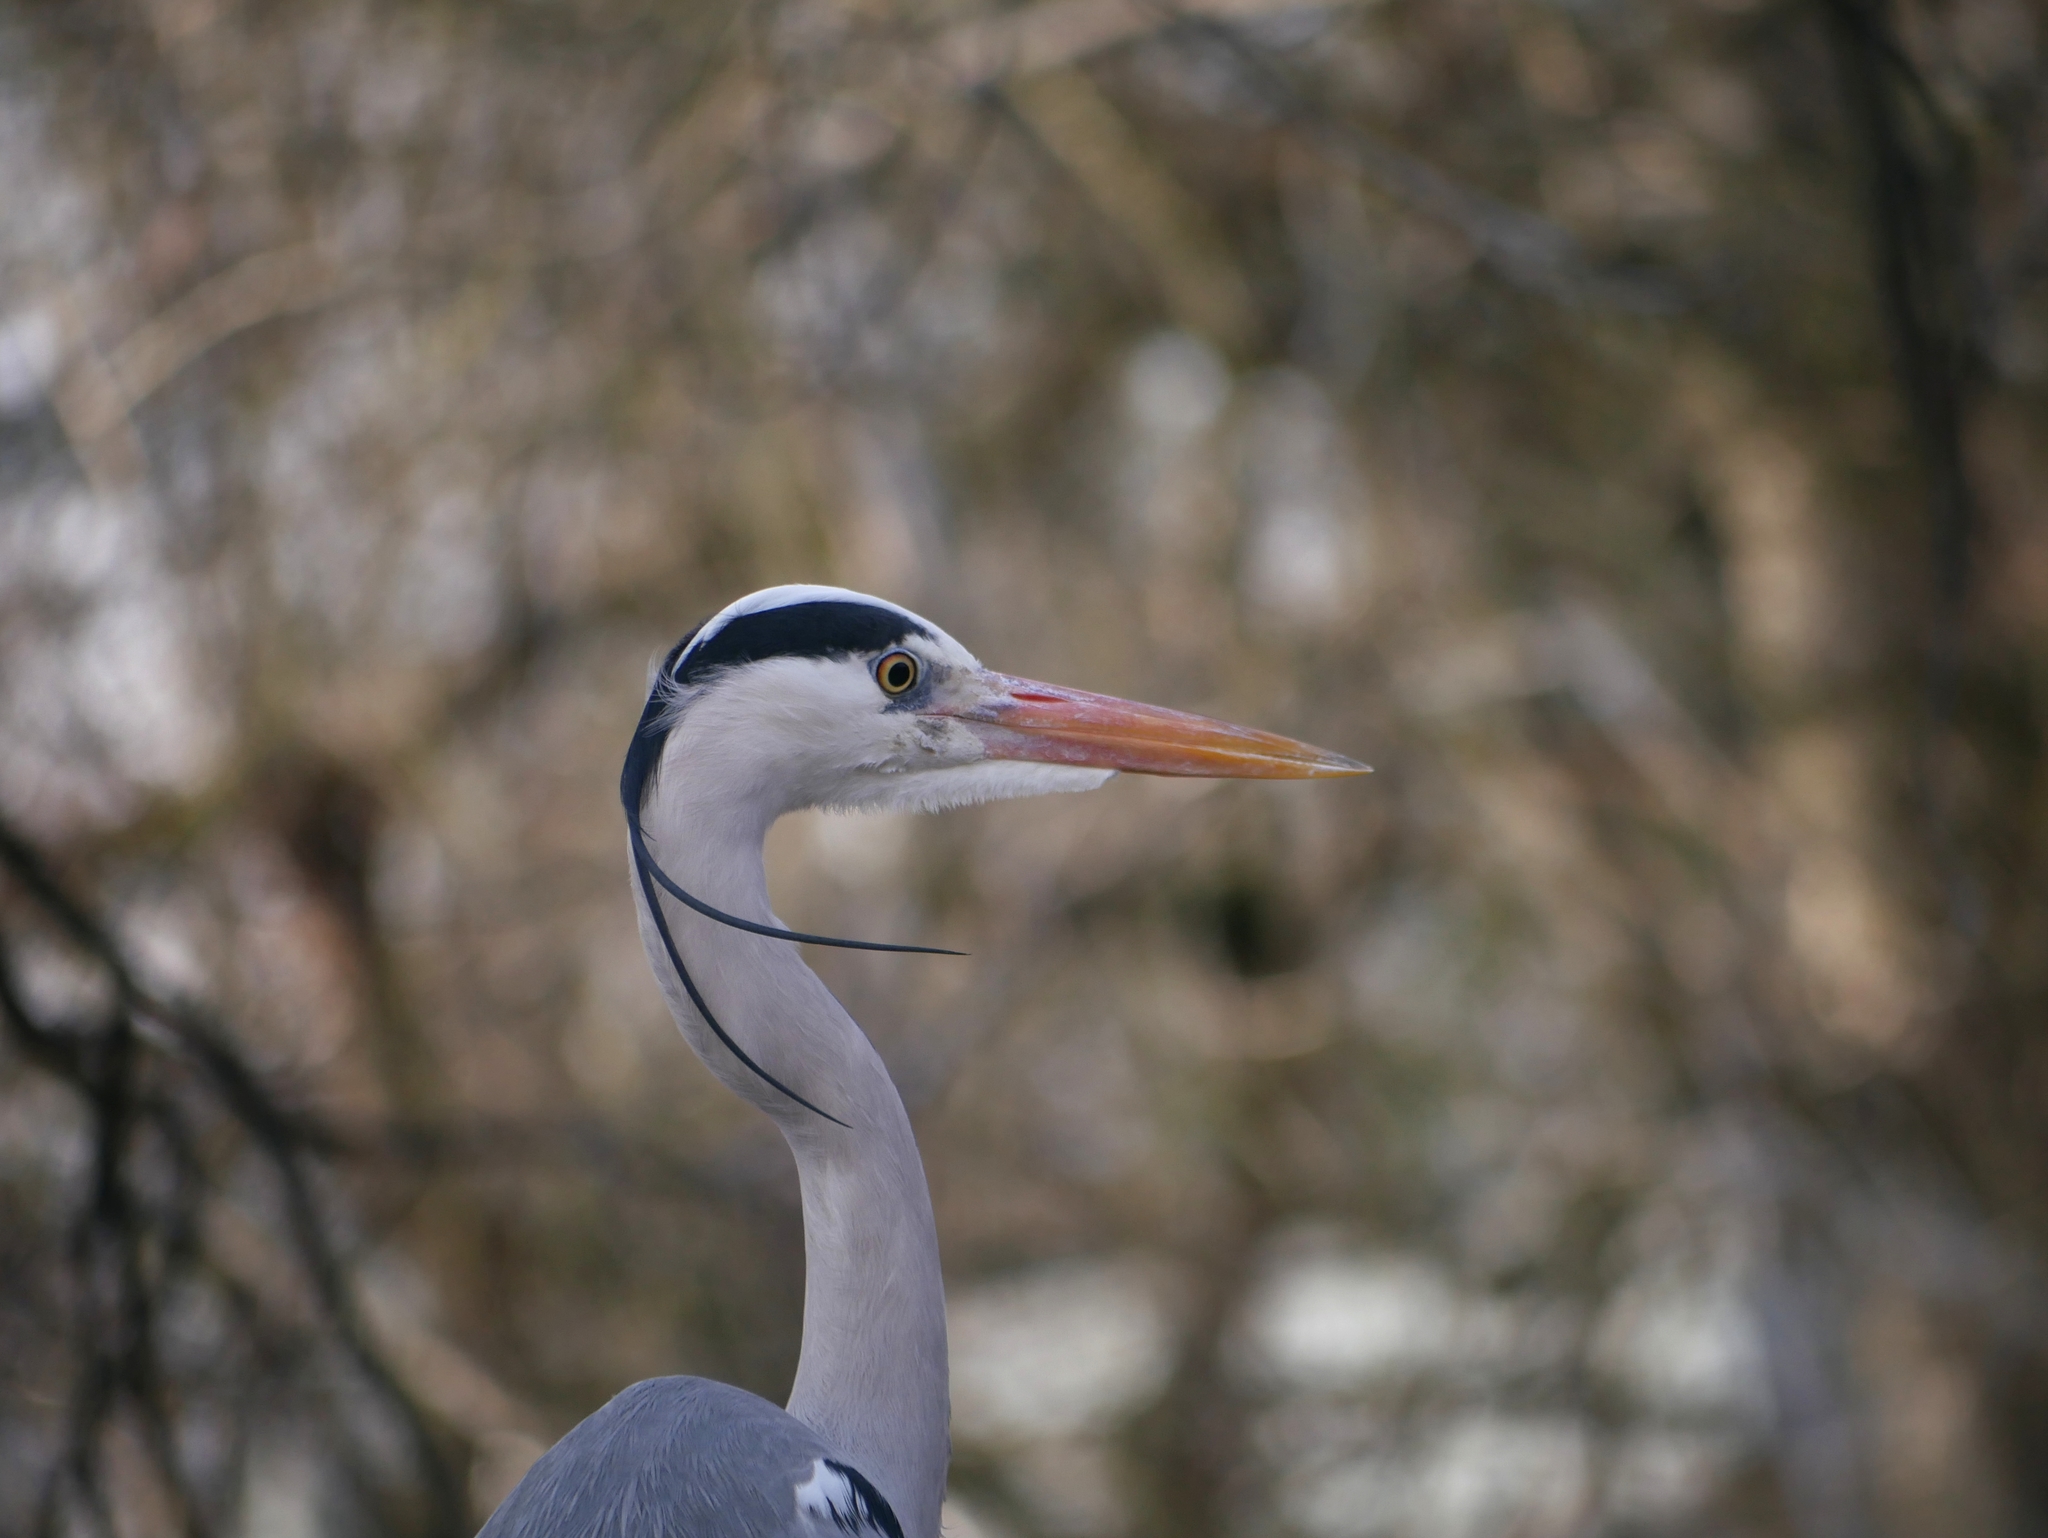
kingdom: Animalia
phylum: Chordata
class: Aves
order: Pelecaniformes
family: Ardeidae
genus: Ardea
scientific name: Ardea cinerea
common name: Grey heron
